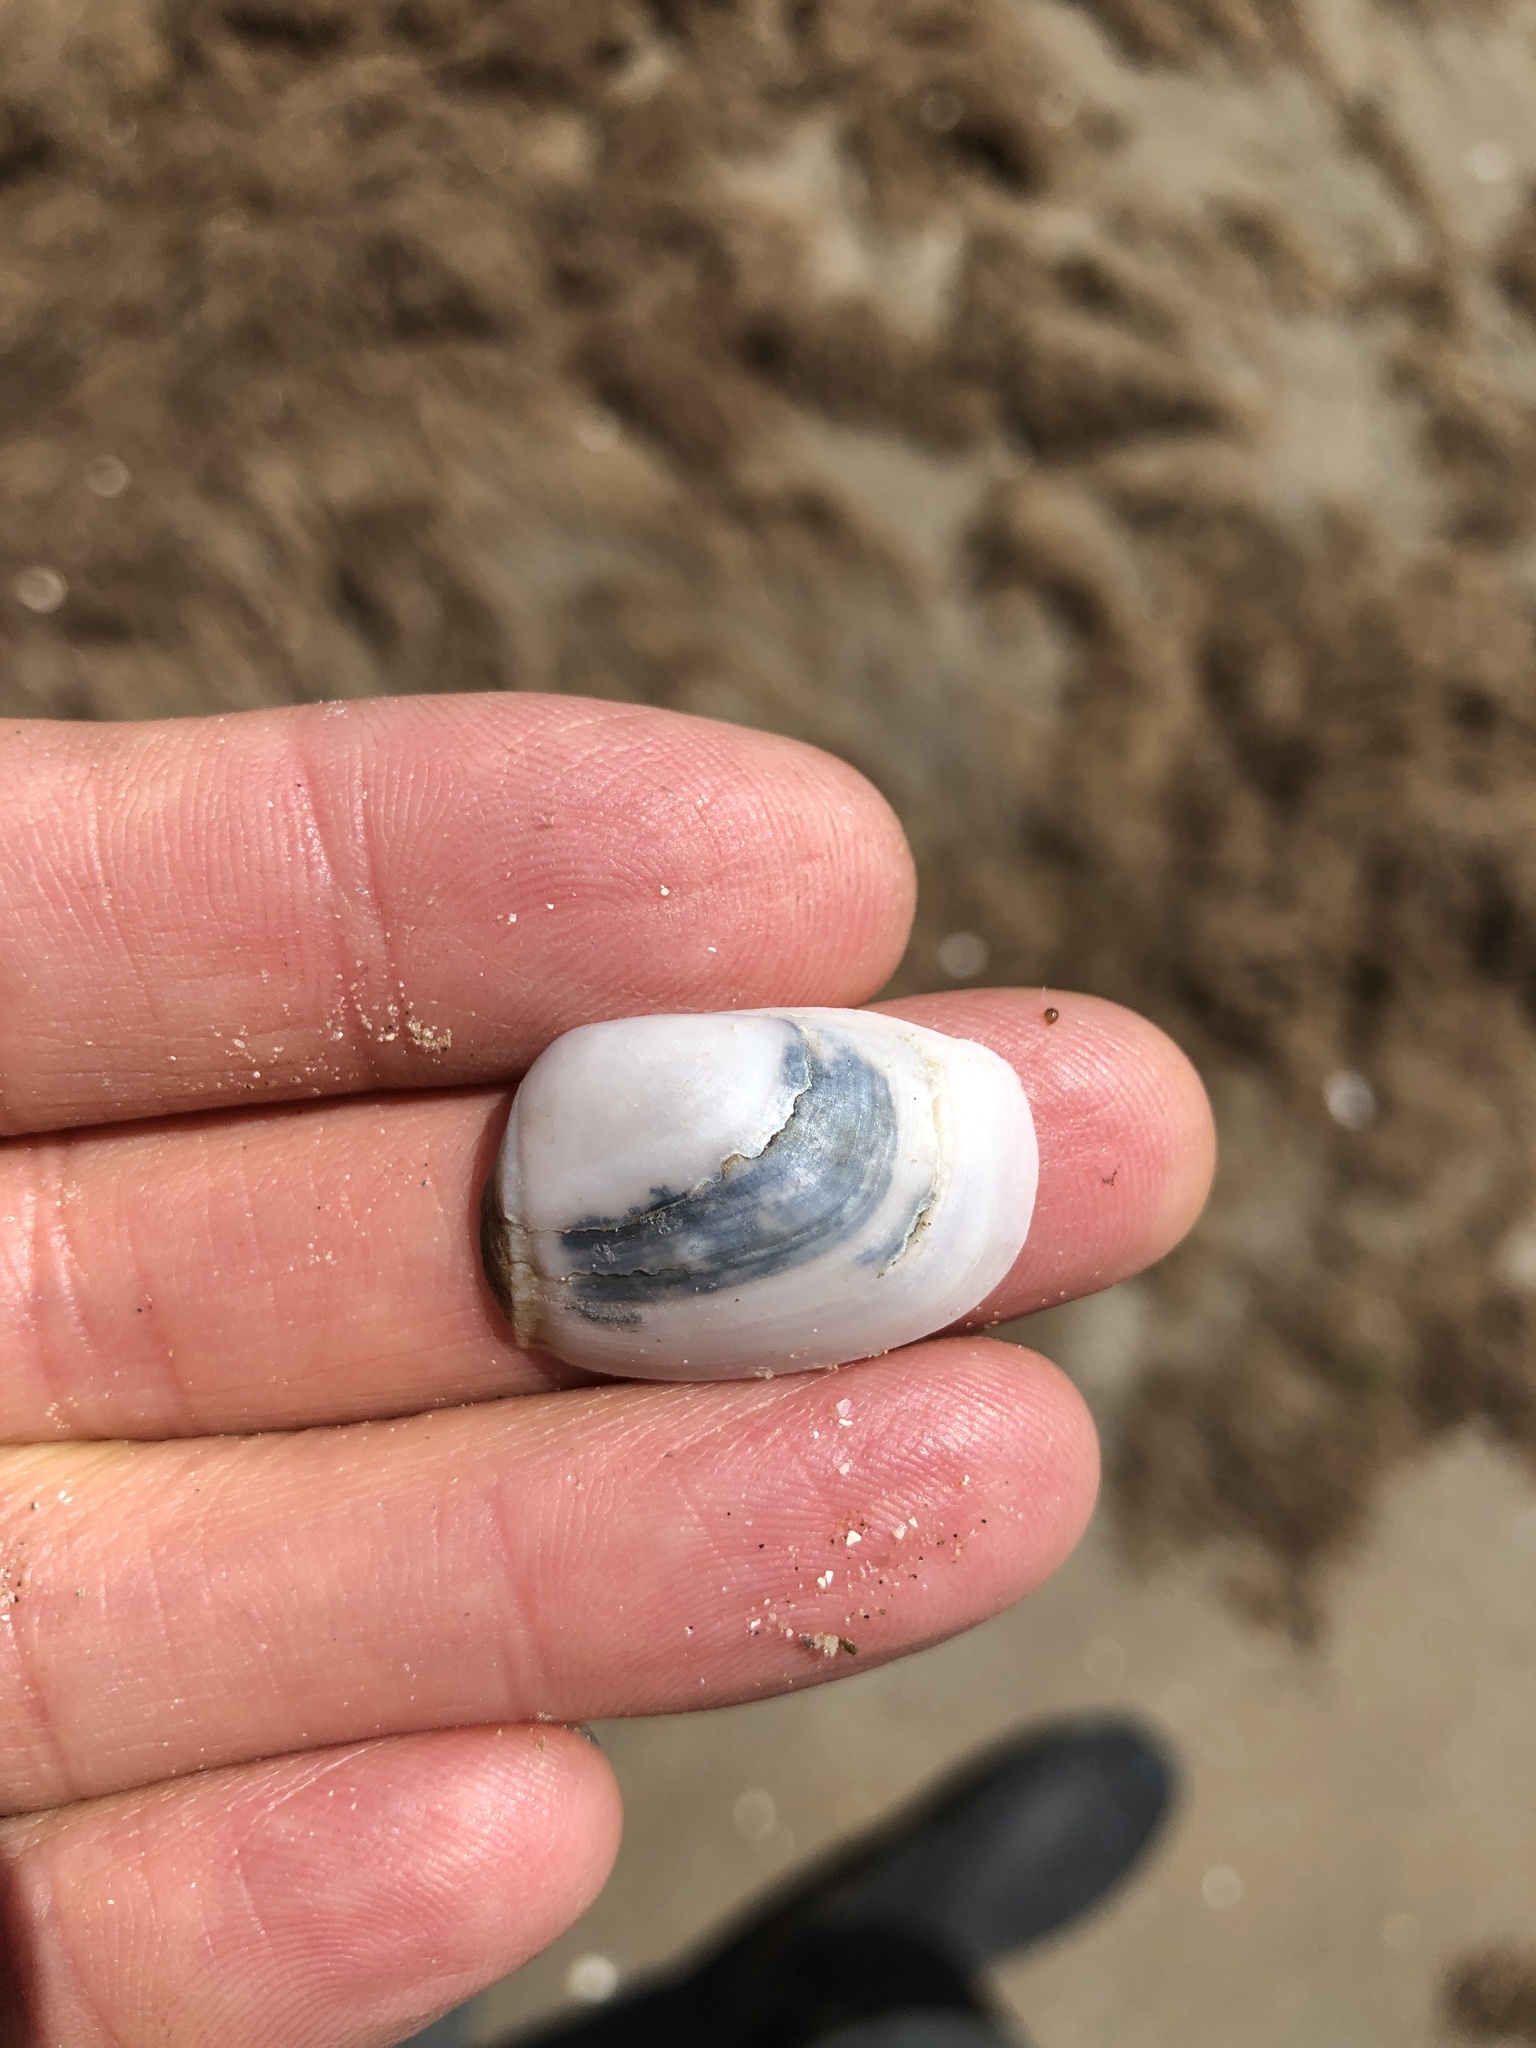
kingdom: Animalia
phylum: Mollusca
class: Bivalvia
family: Periplomatidae
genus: Periploma
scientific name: Periploma inequale
